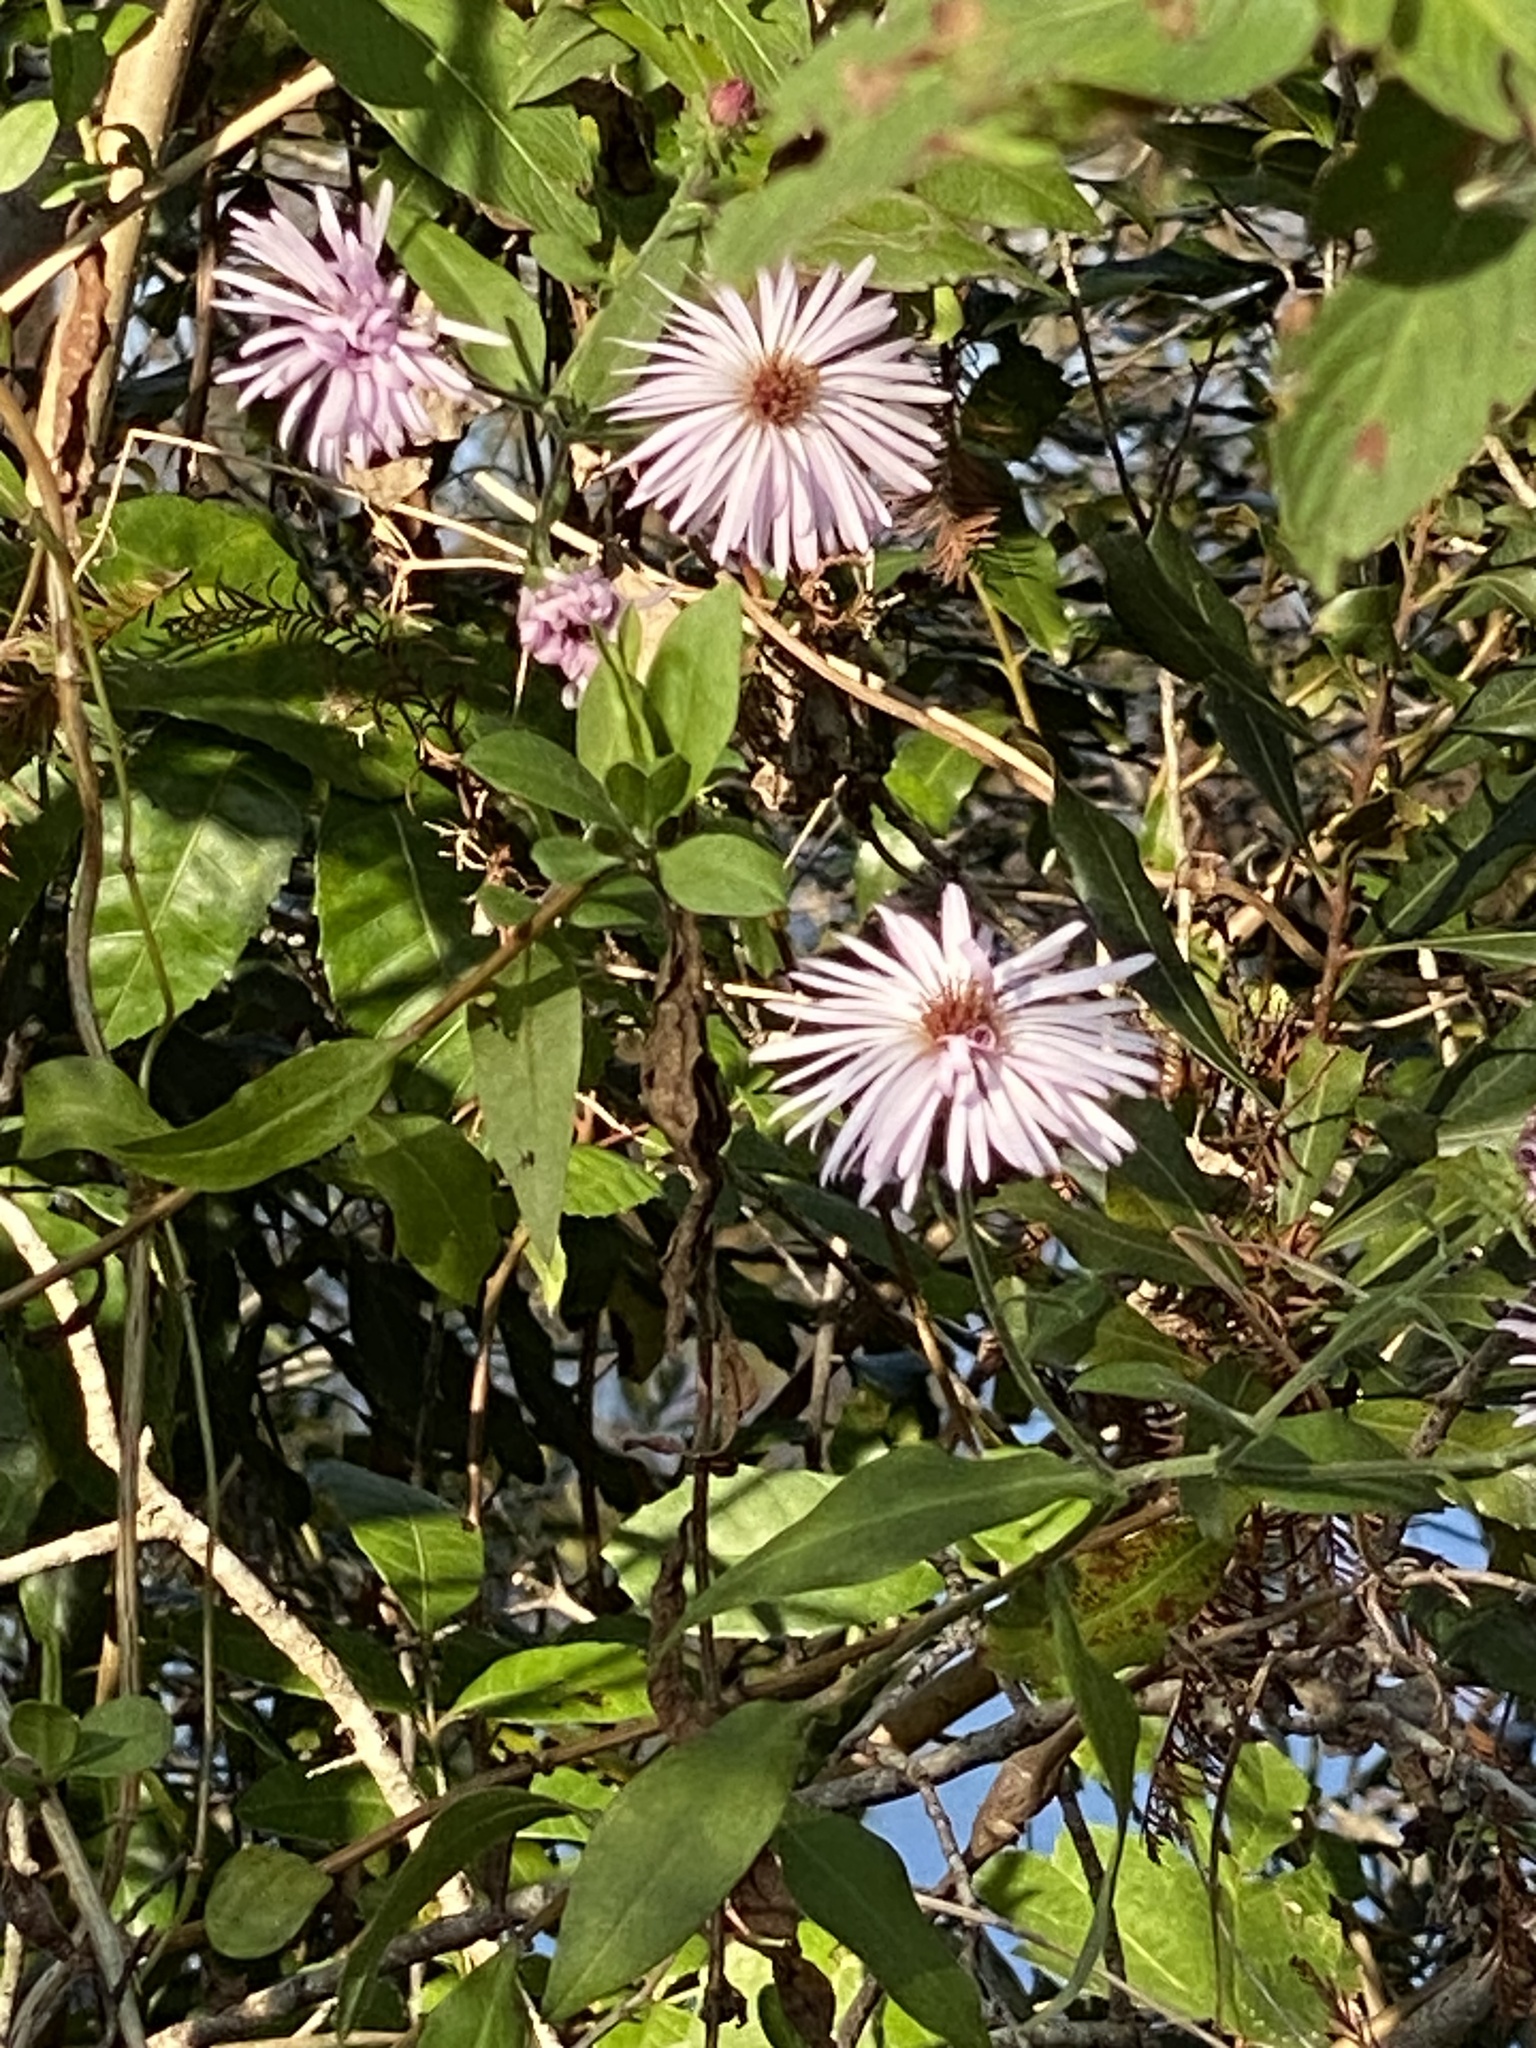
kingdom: Plantae
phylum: Tracheophyta
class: Magnoliopsida
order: Asterales
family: Asteraceae
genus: Ampelaster
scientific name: Ampelaster carolinianus
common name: Climbing aster
